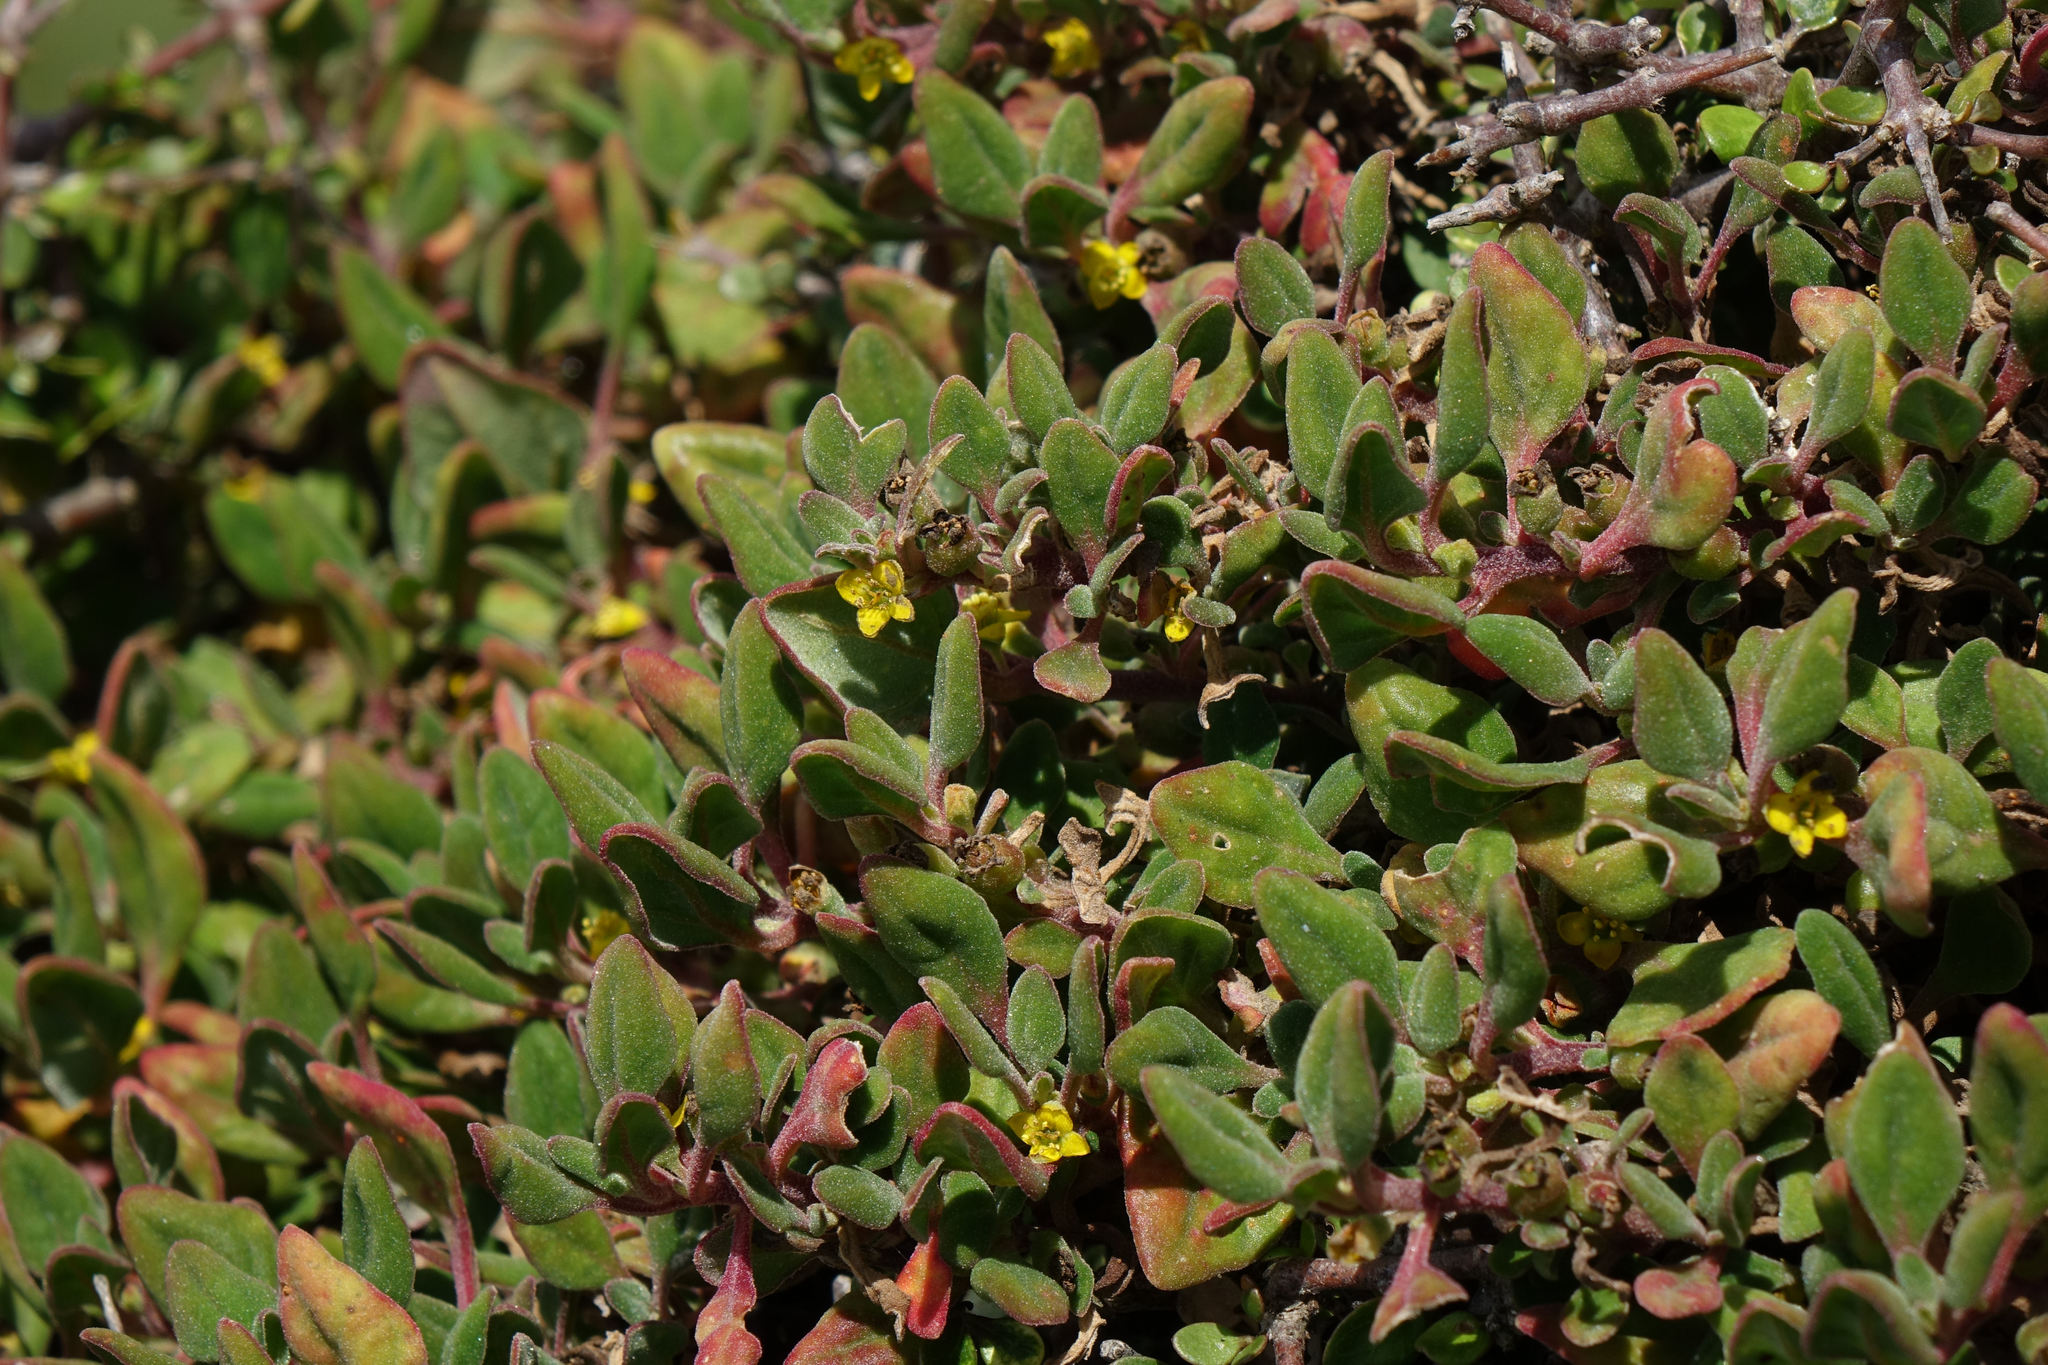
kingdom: Plantae
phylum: Tracheophyta
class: Magnoliopsida
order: Caryophyllales
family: Aizoaceae
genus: Tetragonia
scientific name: Tetragonia implexicoma
